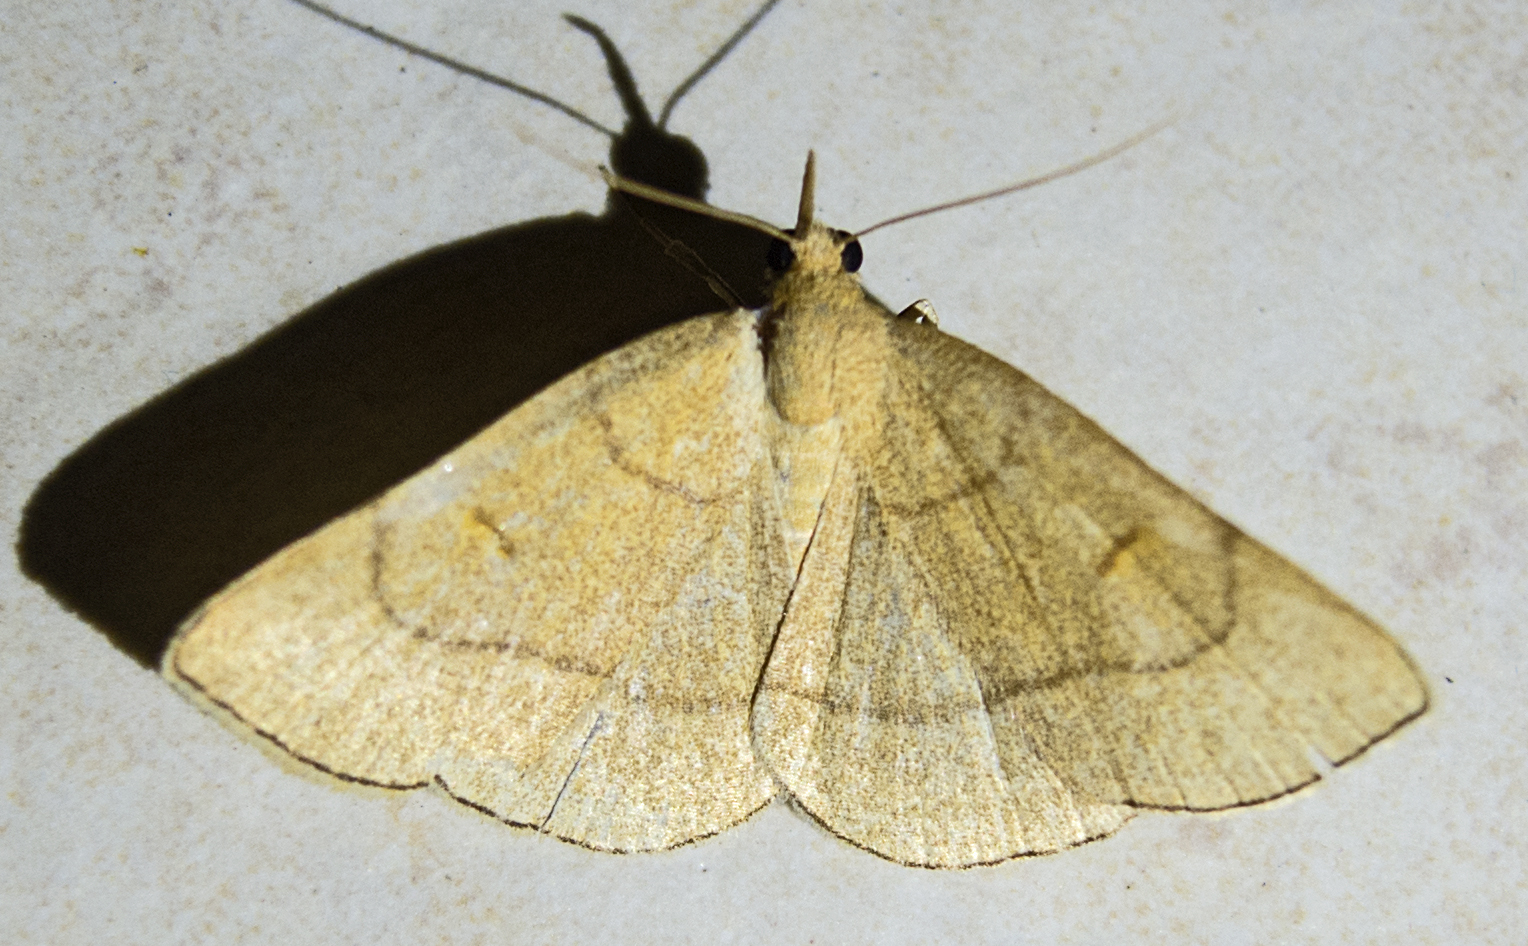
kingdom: Animalia
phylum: Arthropoda
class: Insecta
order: Lepidoptera
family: Erebidae
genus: Paracolax
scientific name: Paracolax tristalis
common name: Clay fan-foot
